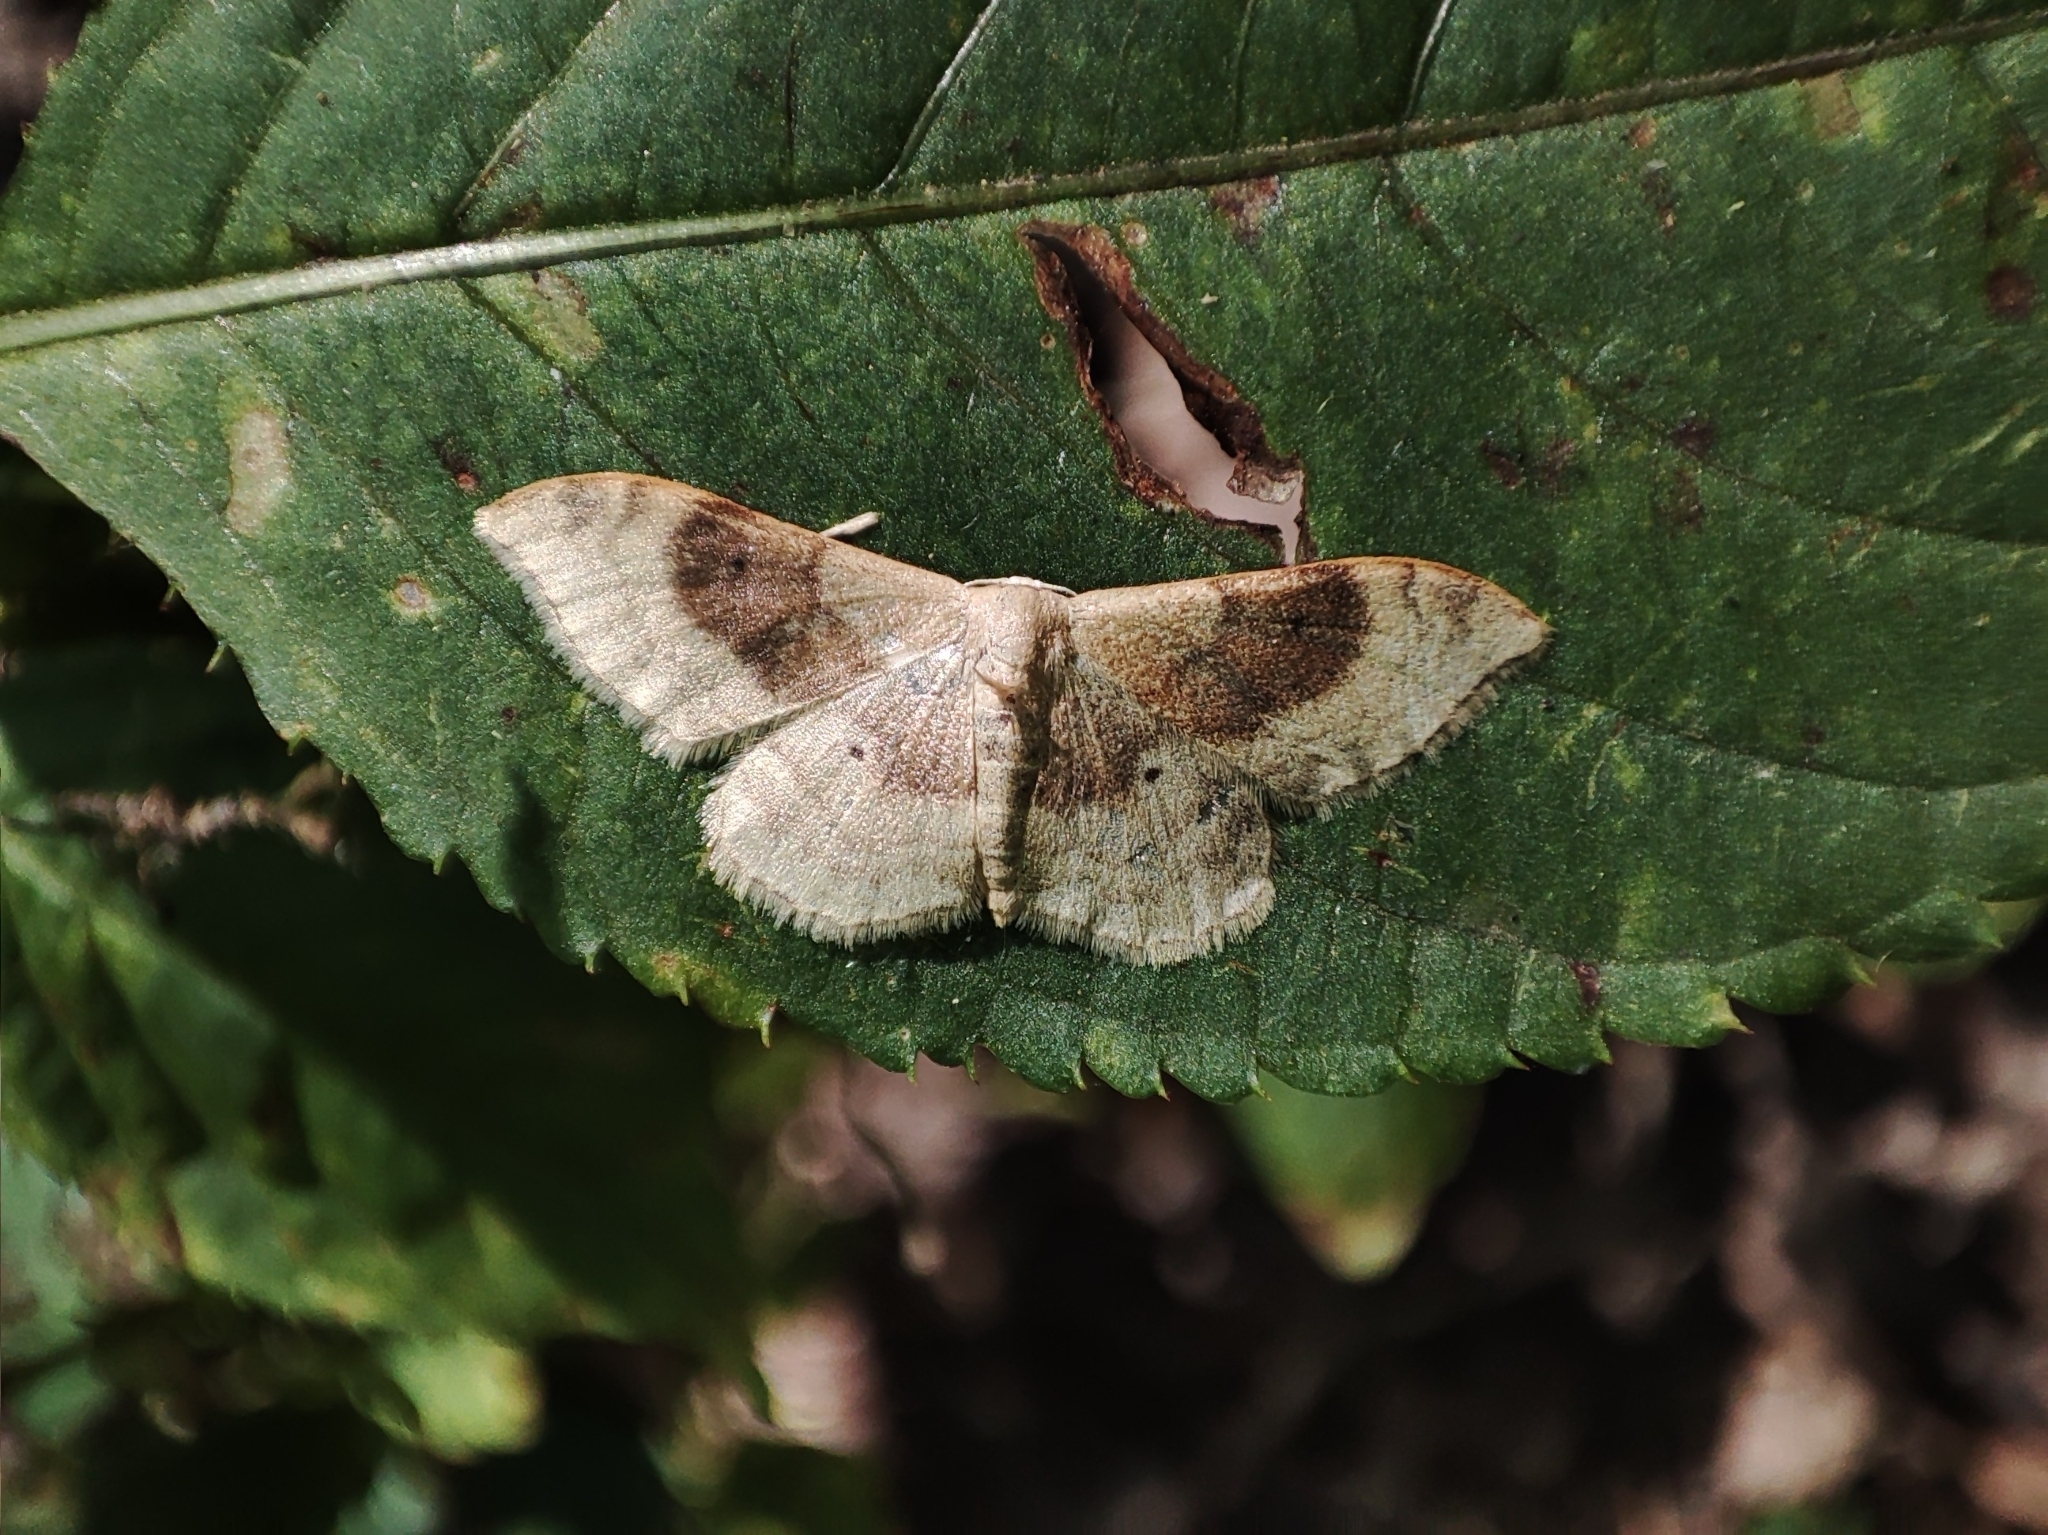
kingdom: Animalia
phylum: Arthropoda
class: Insecta
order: Lepidoptera
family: Geometridae
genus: Idaea
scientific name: Idaea degeneraria
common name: Portland ribbon wave
